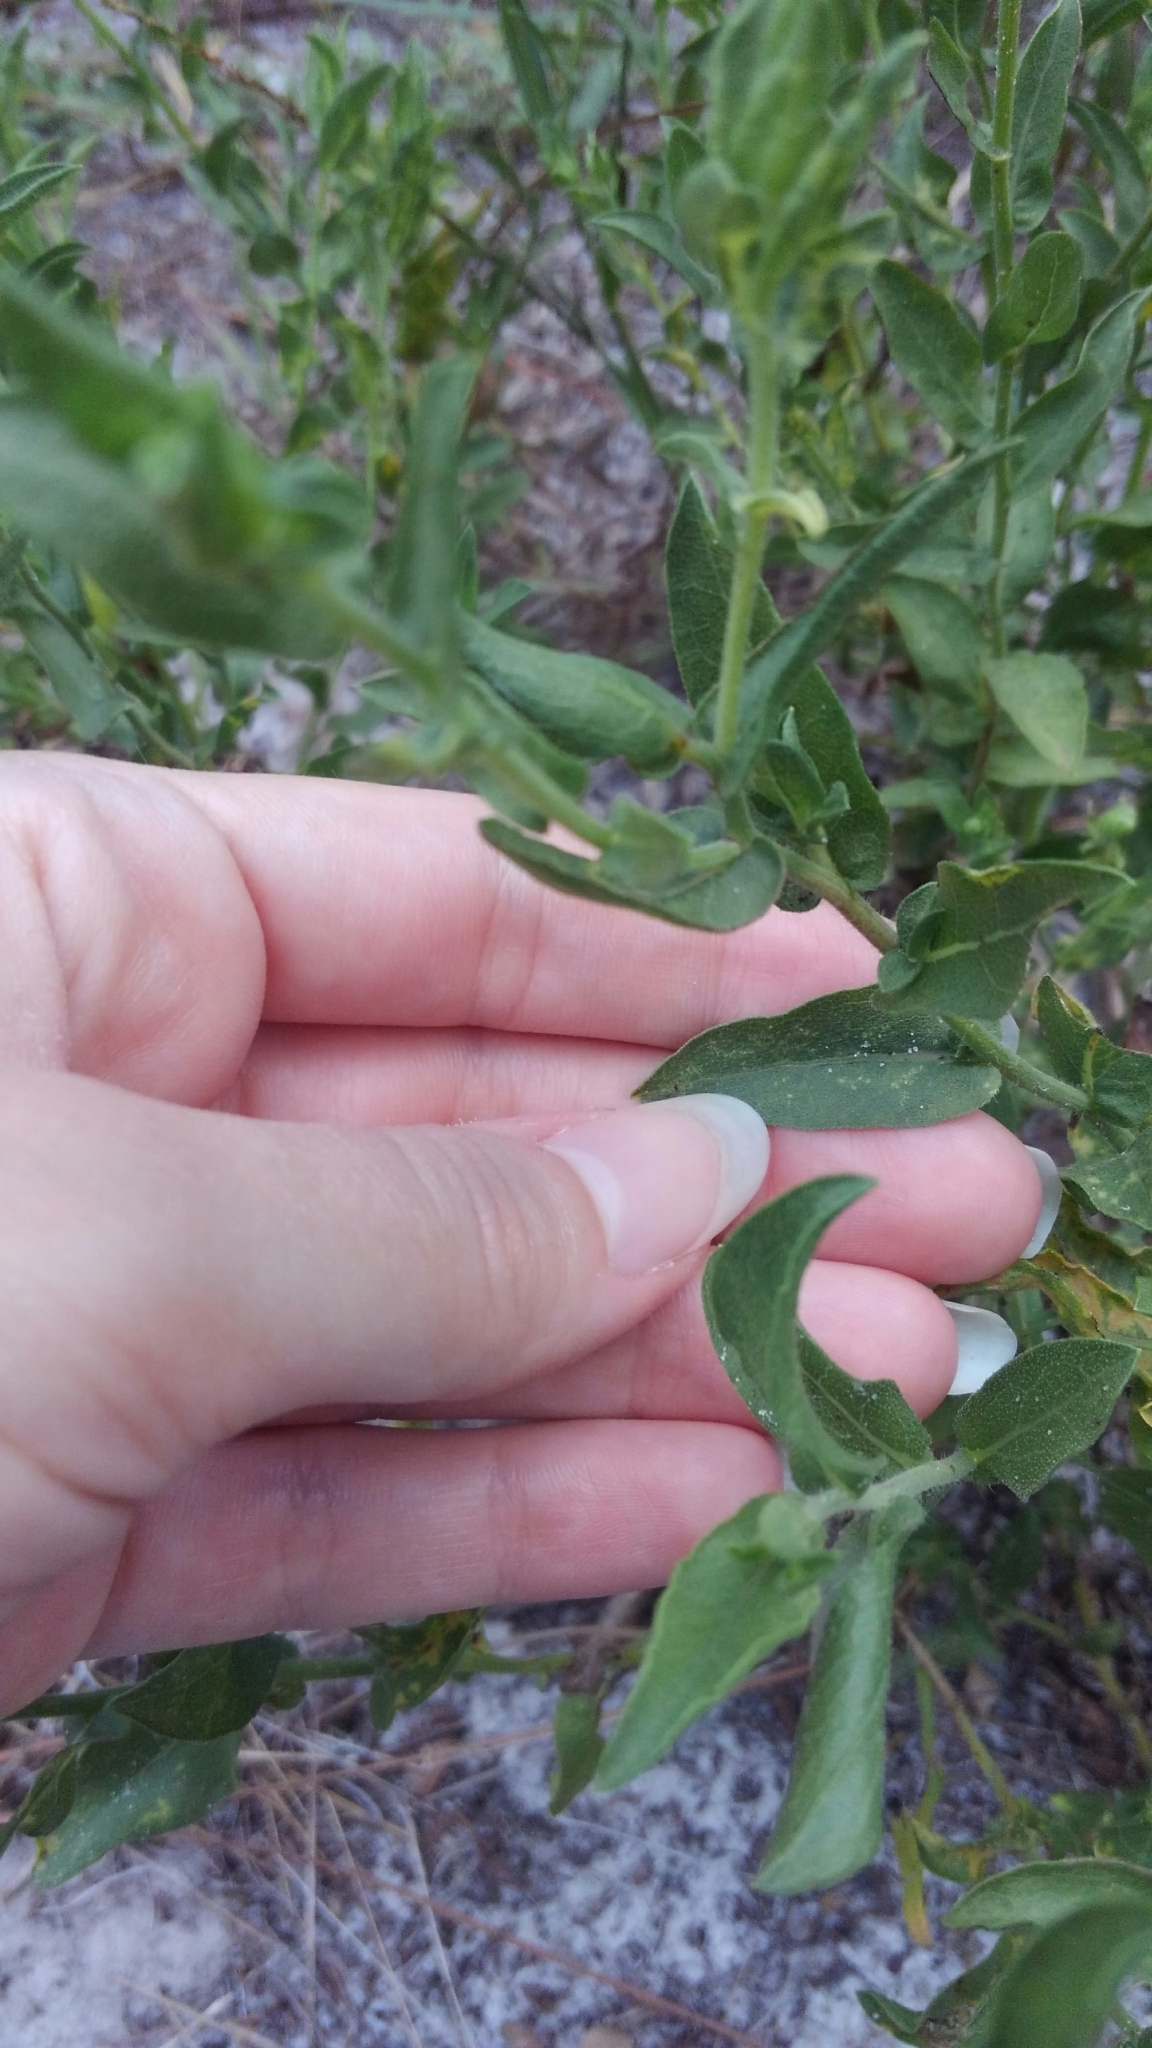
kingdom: Plantae
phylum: Tracheophyta
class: Magnoliopsida
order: Asterales
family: Asteraceae
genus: Heterotheca
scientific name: Heterotheca subaxillaris
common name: Camphorweed
